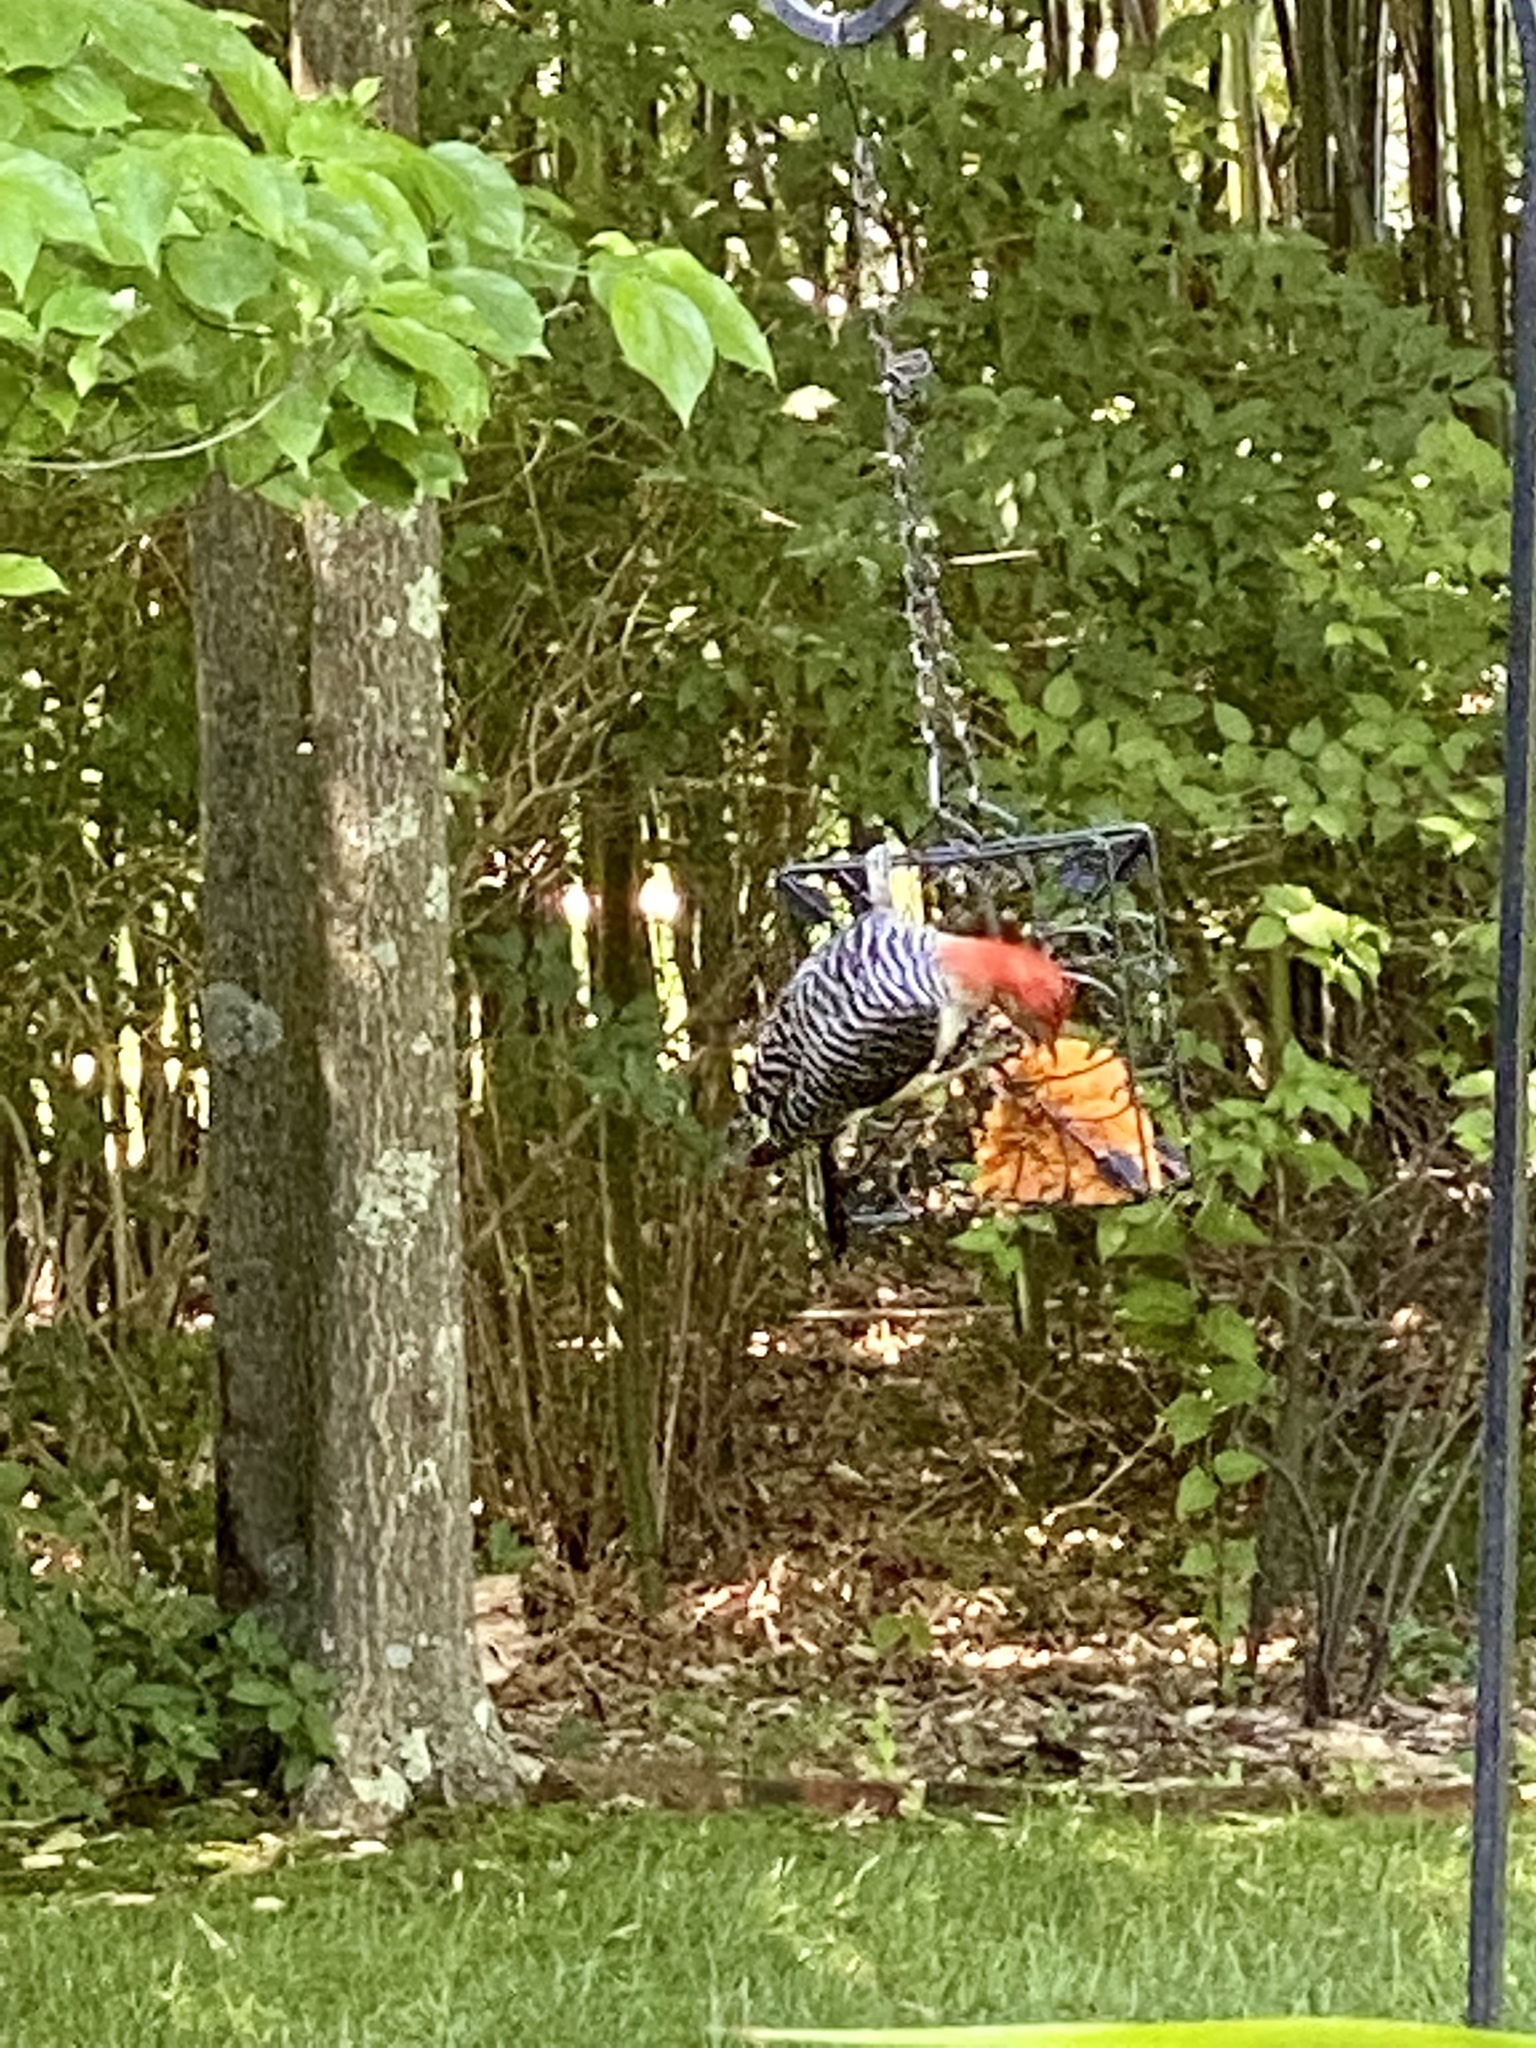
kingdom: Animalia
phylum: Chordata
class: Aves
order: Piciformes
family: Picidae
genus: Melanerpes
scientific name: Melanerpes carolinus
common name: Red-bellied woodpecker
